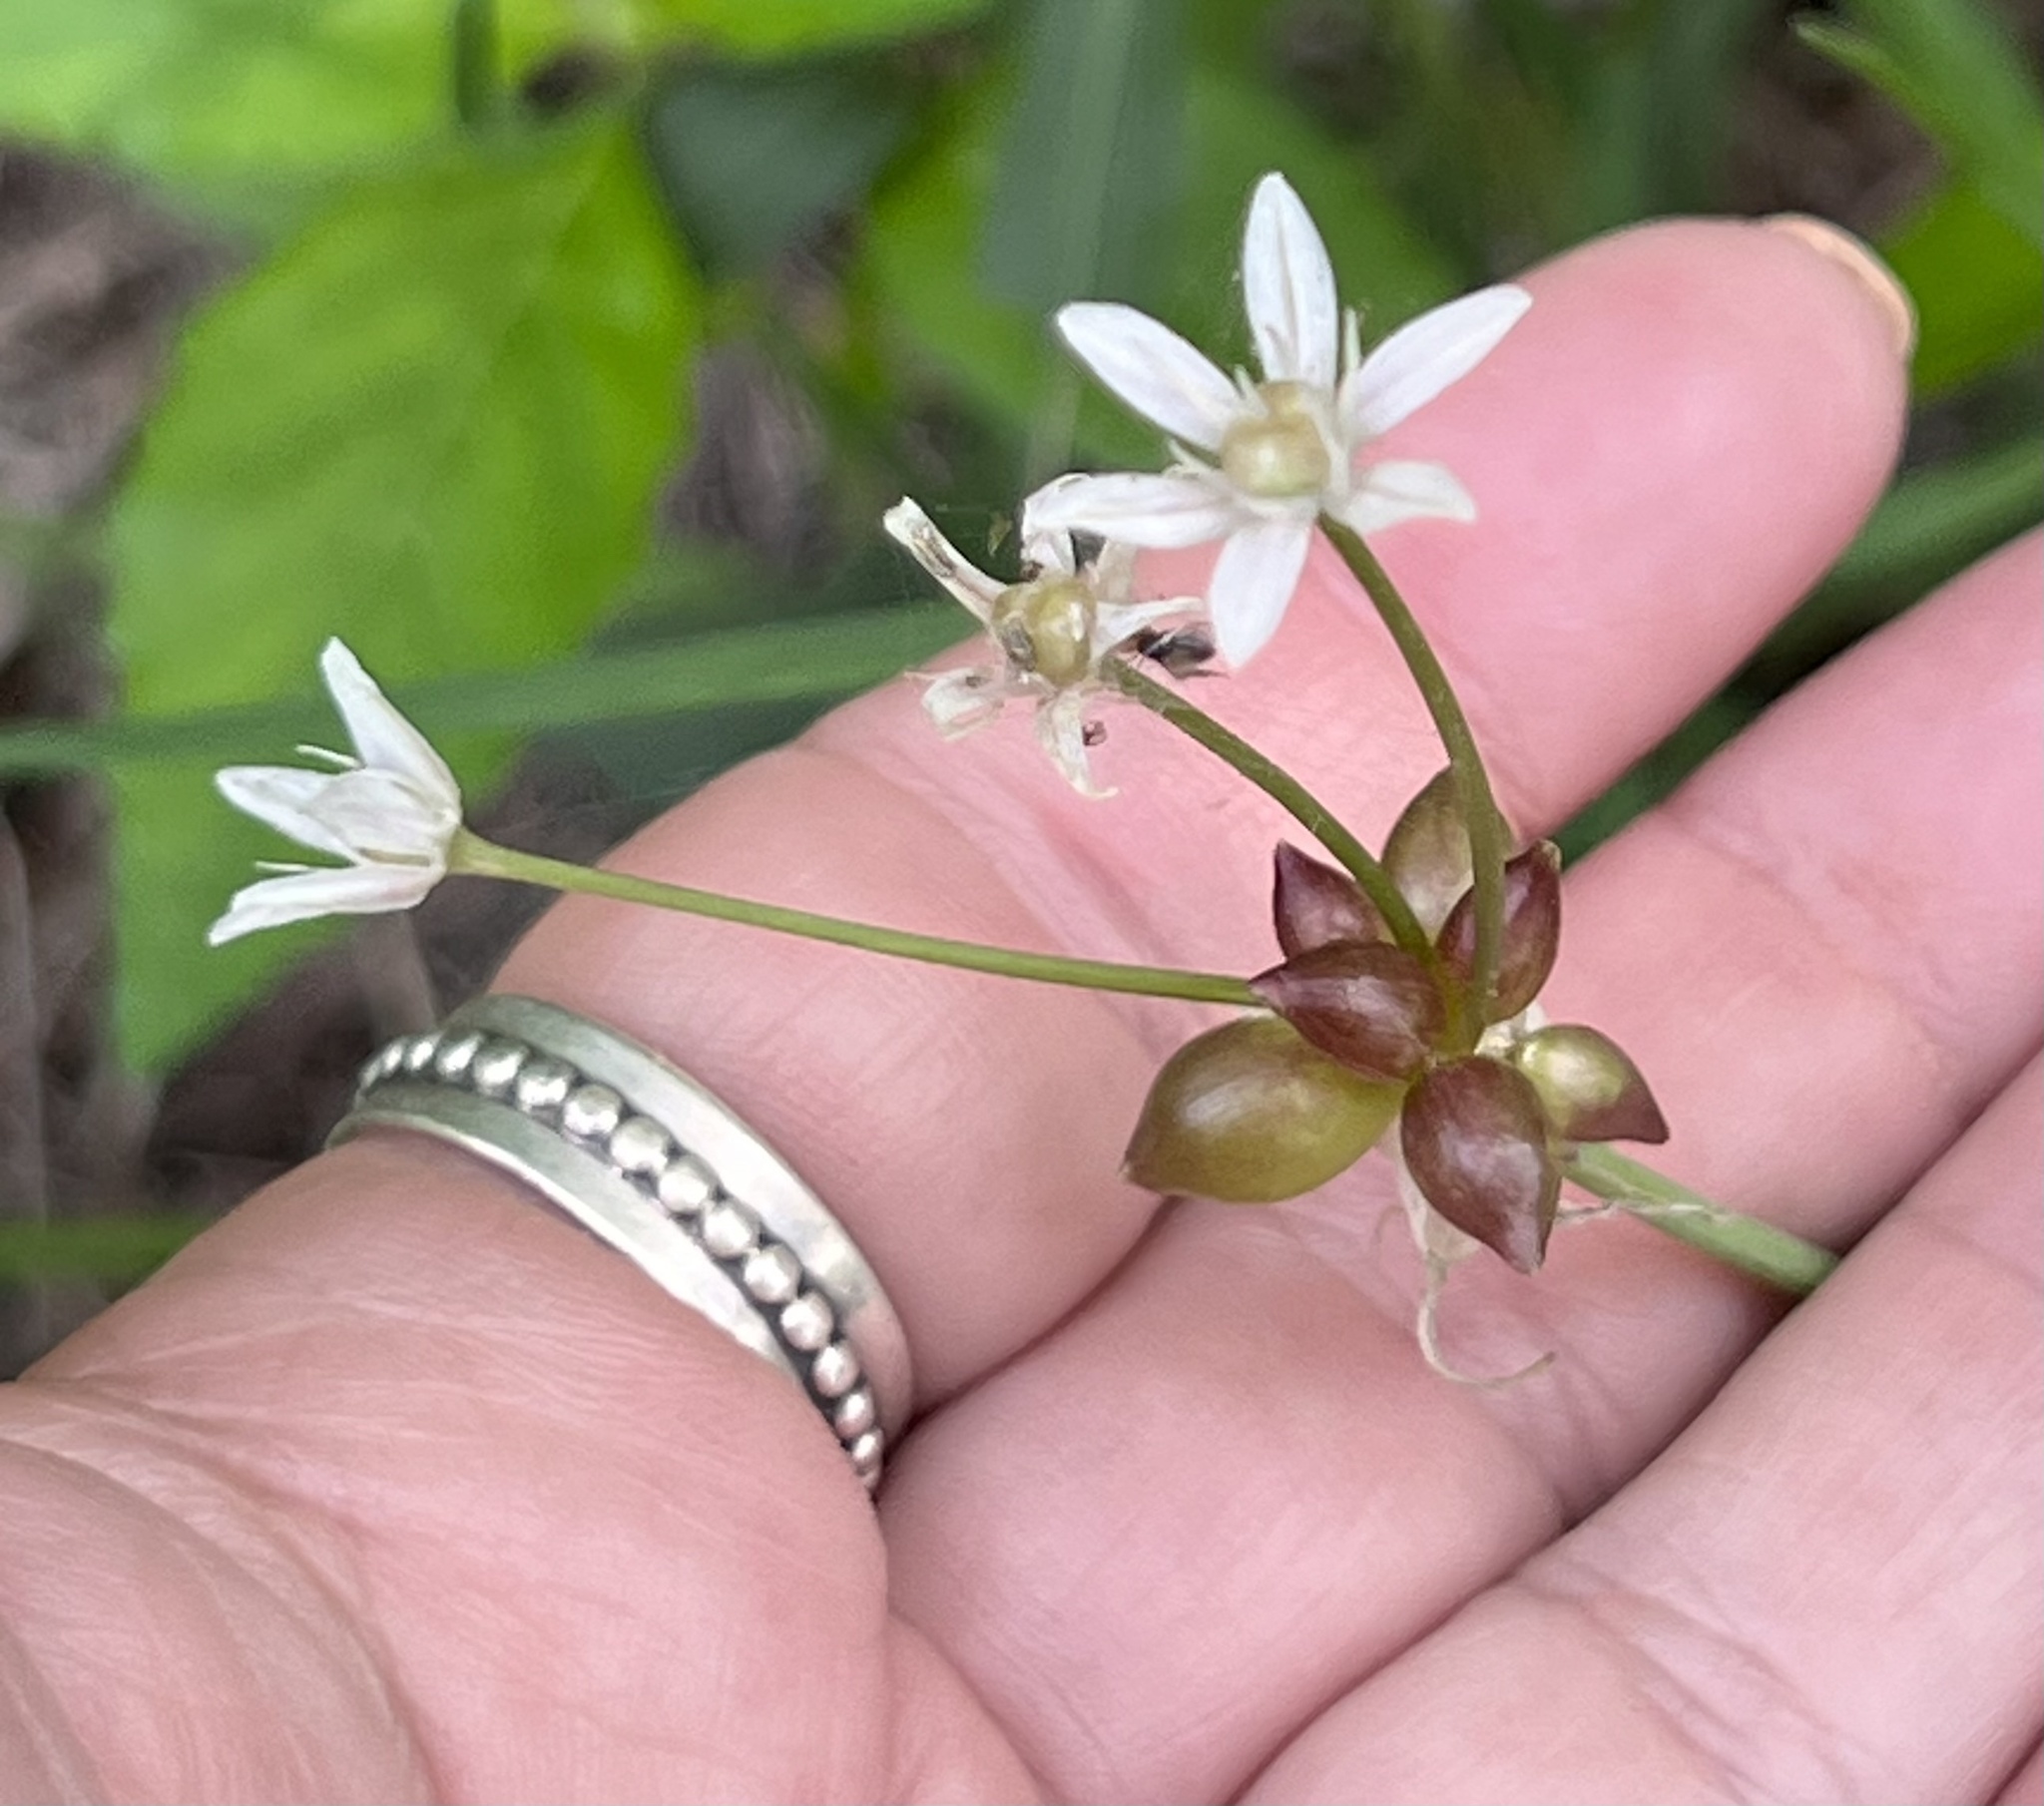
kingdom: Plantae
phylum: Tracheophyta
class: Liliopsida
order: Asparagales
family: Amaryllidaceae
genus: Allium
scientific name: Allium canadense
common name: Meadow garlic
